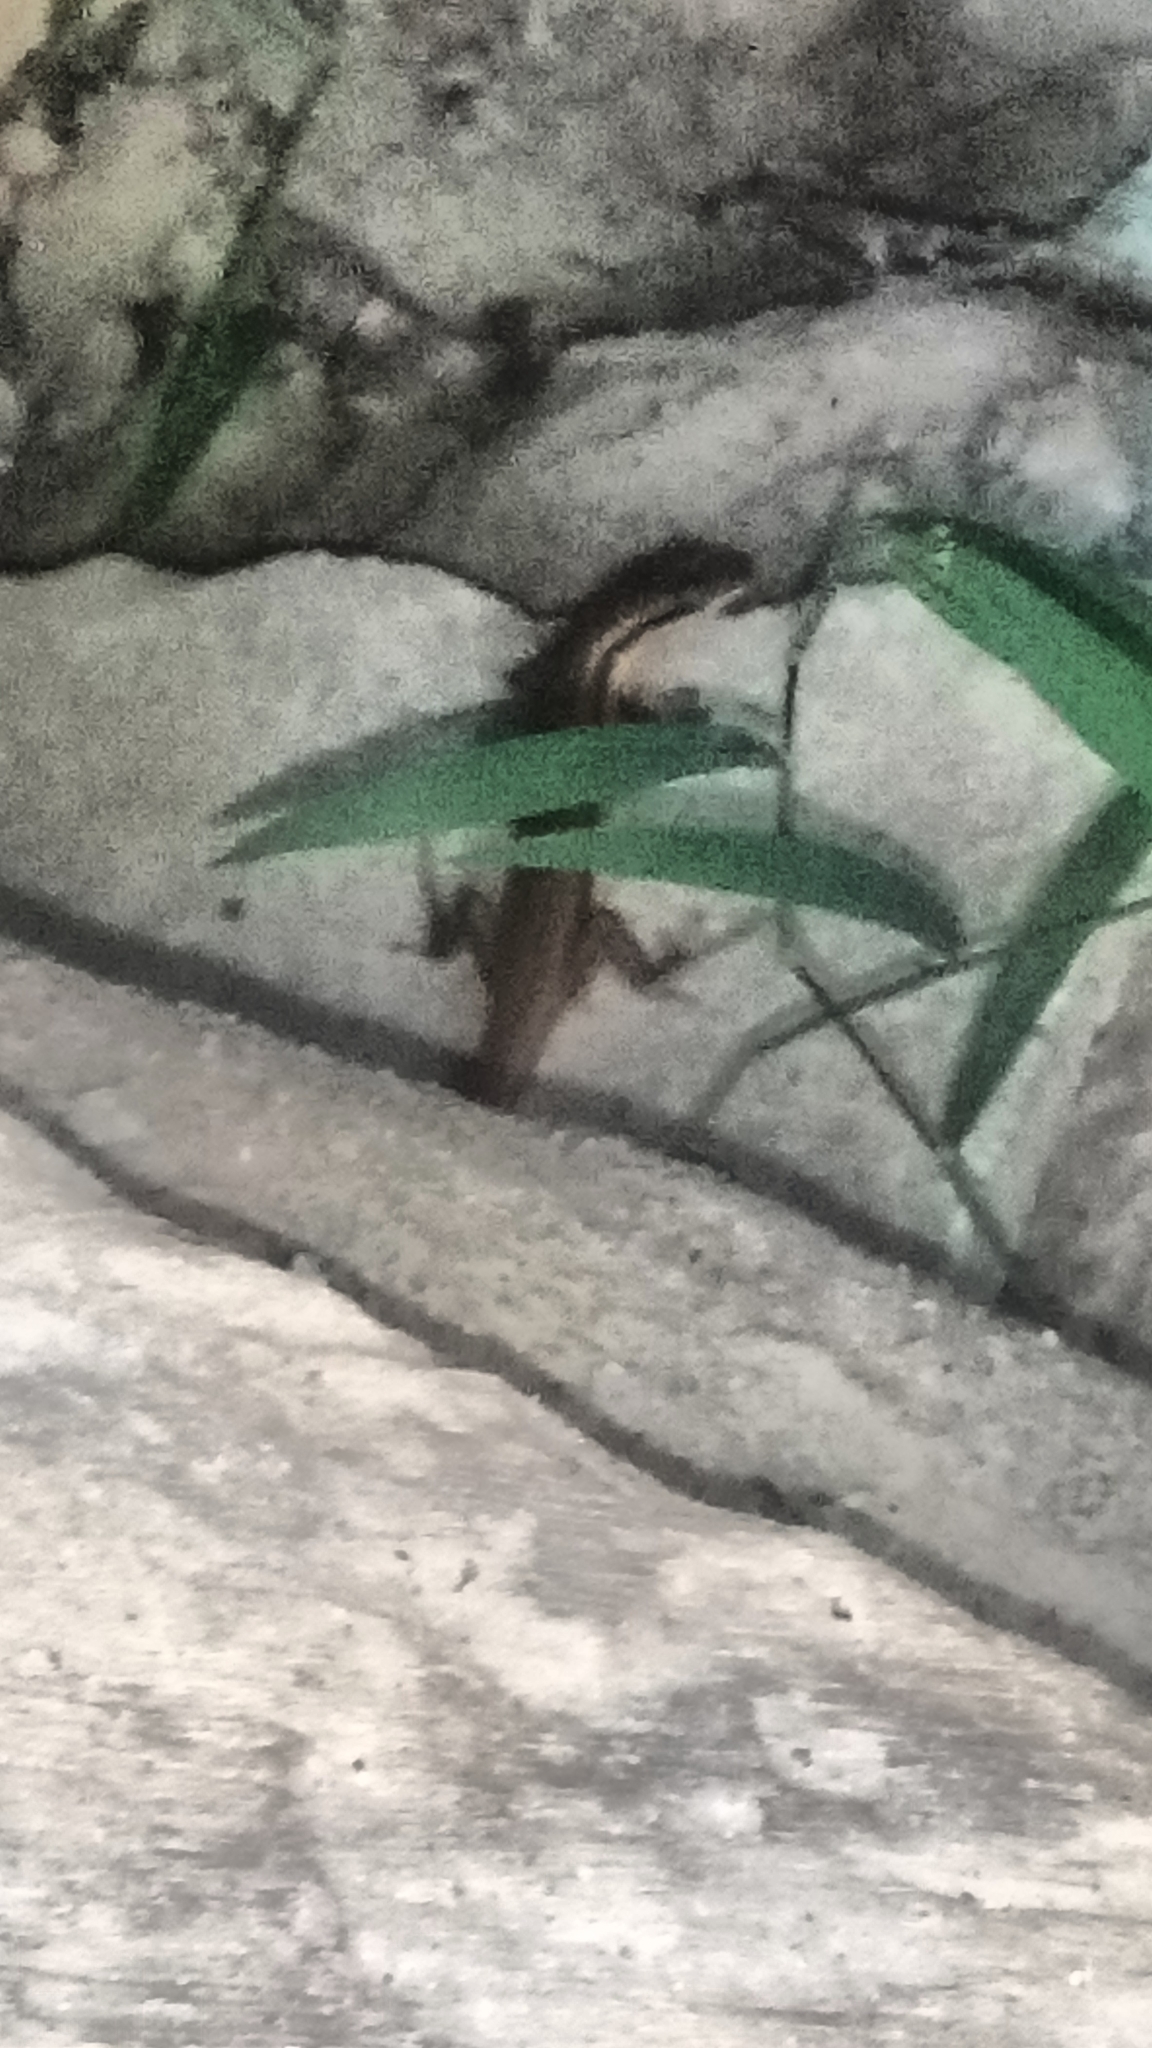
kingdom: Animalia
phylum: Chordata
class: Squamata
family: Scincidae
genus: Eutropis
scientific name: Eutropis multifasciata
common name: Common mabuya
